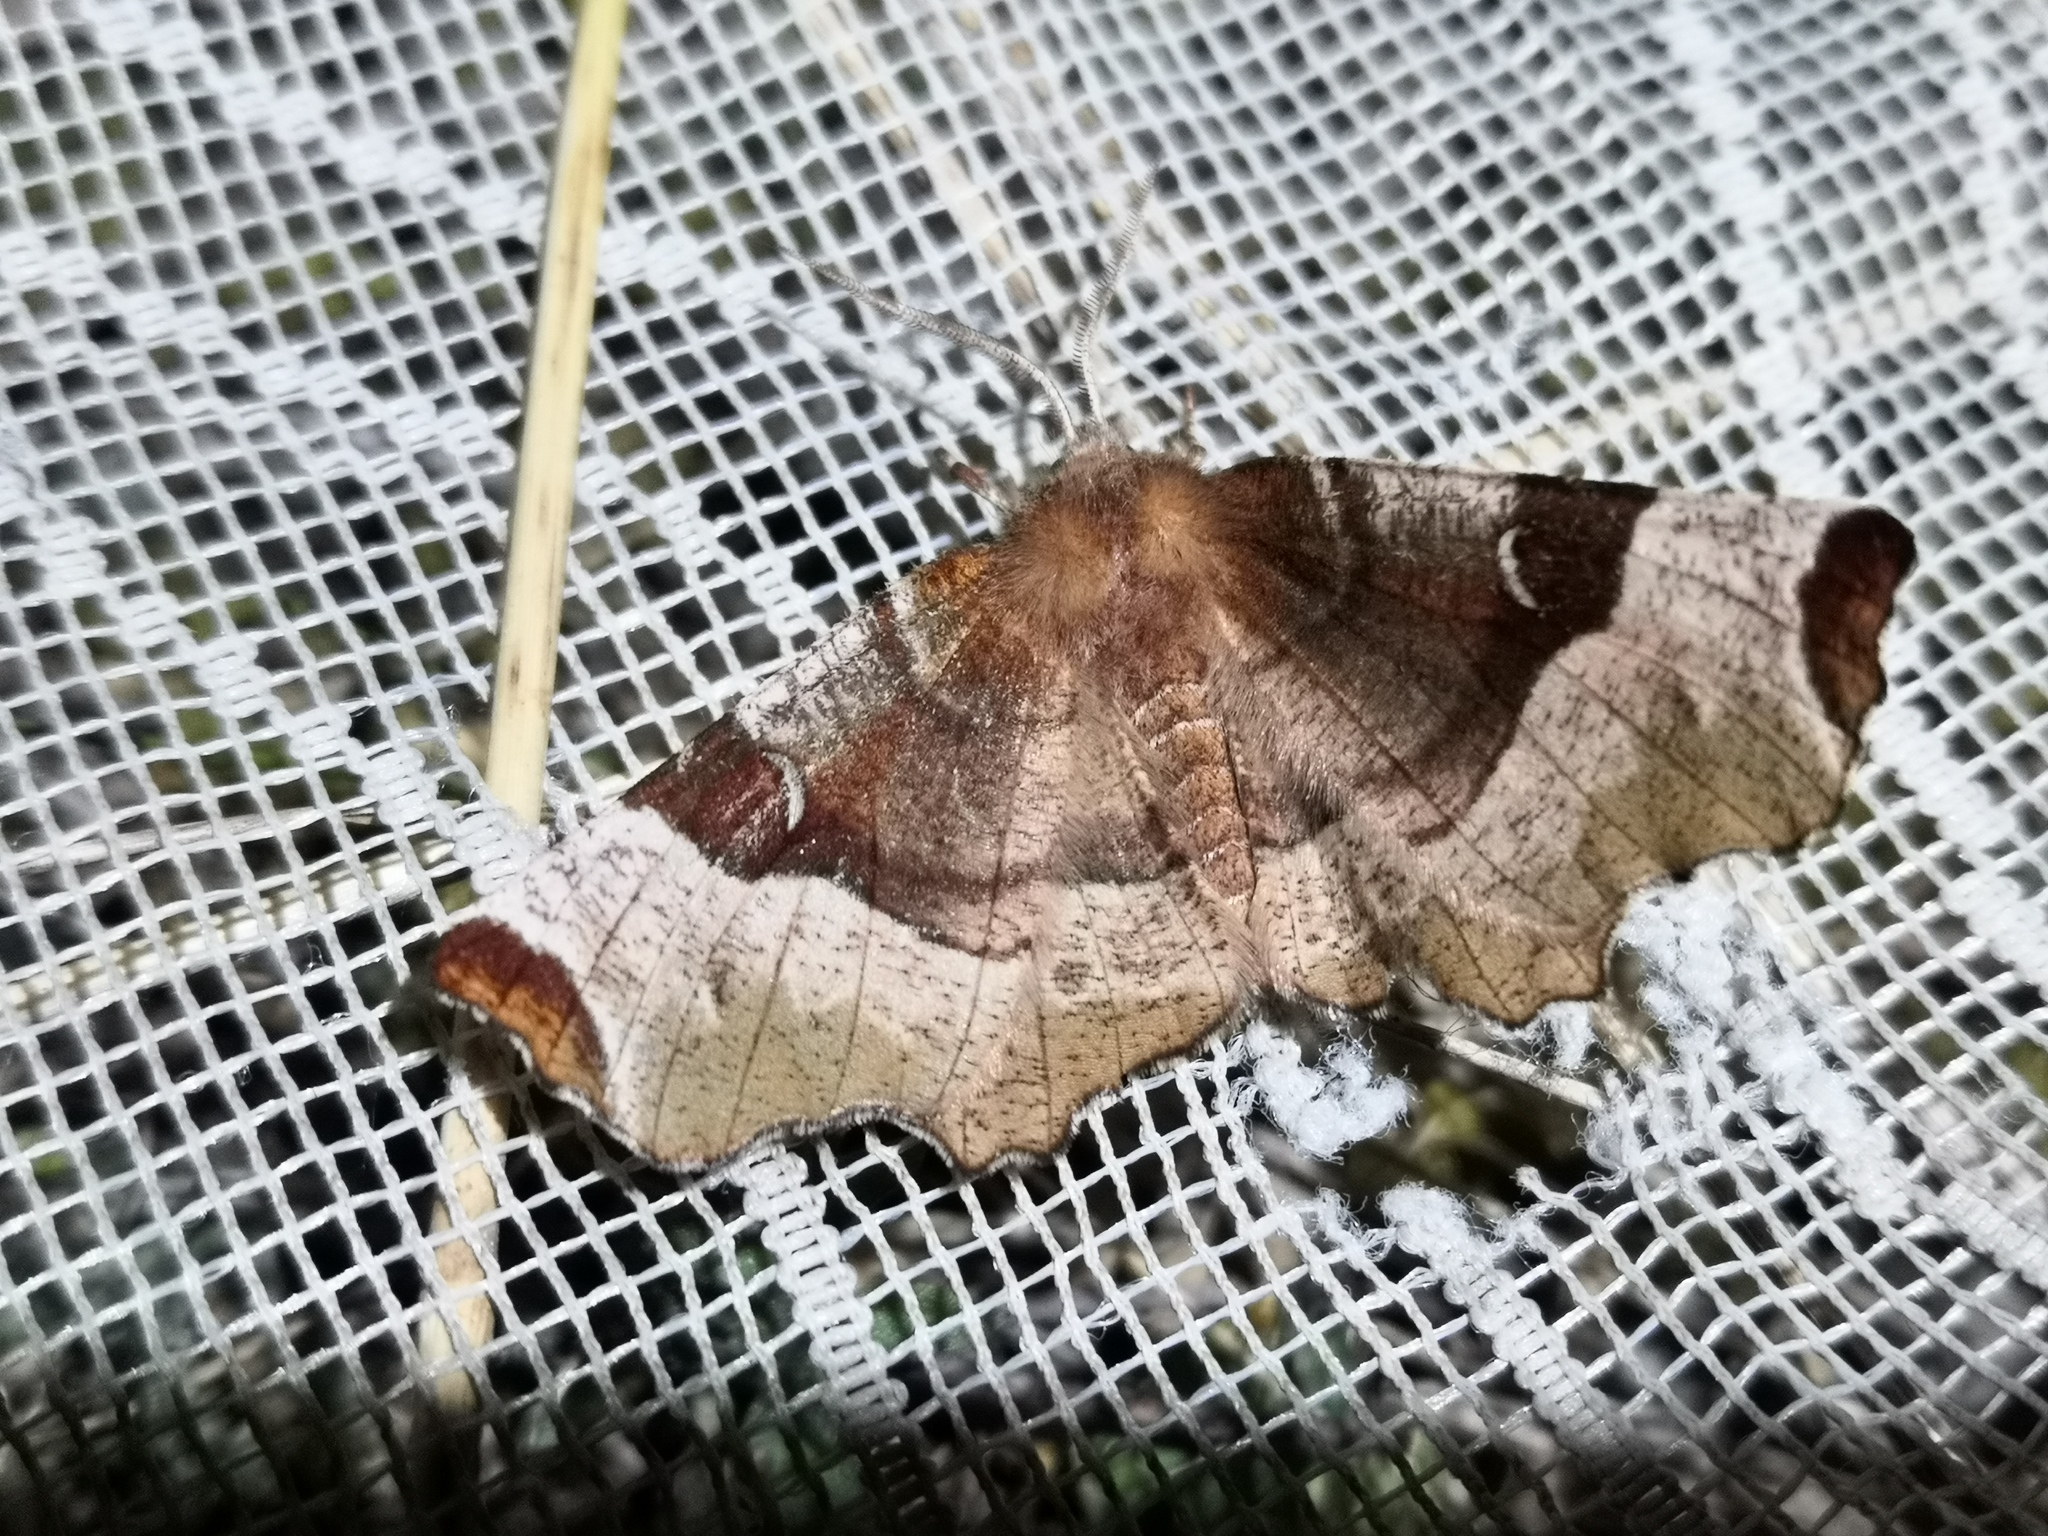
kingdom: Animalia
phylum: Arthropoda
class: Insecta
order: Lepidoptera
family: Geometridae
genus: Selenia
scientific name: Selenia tetralunaria
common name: Purple thorn
